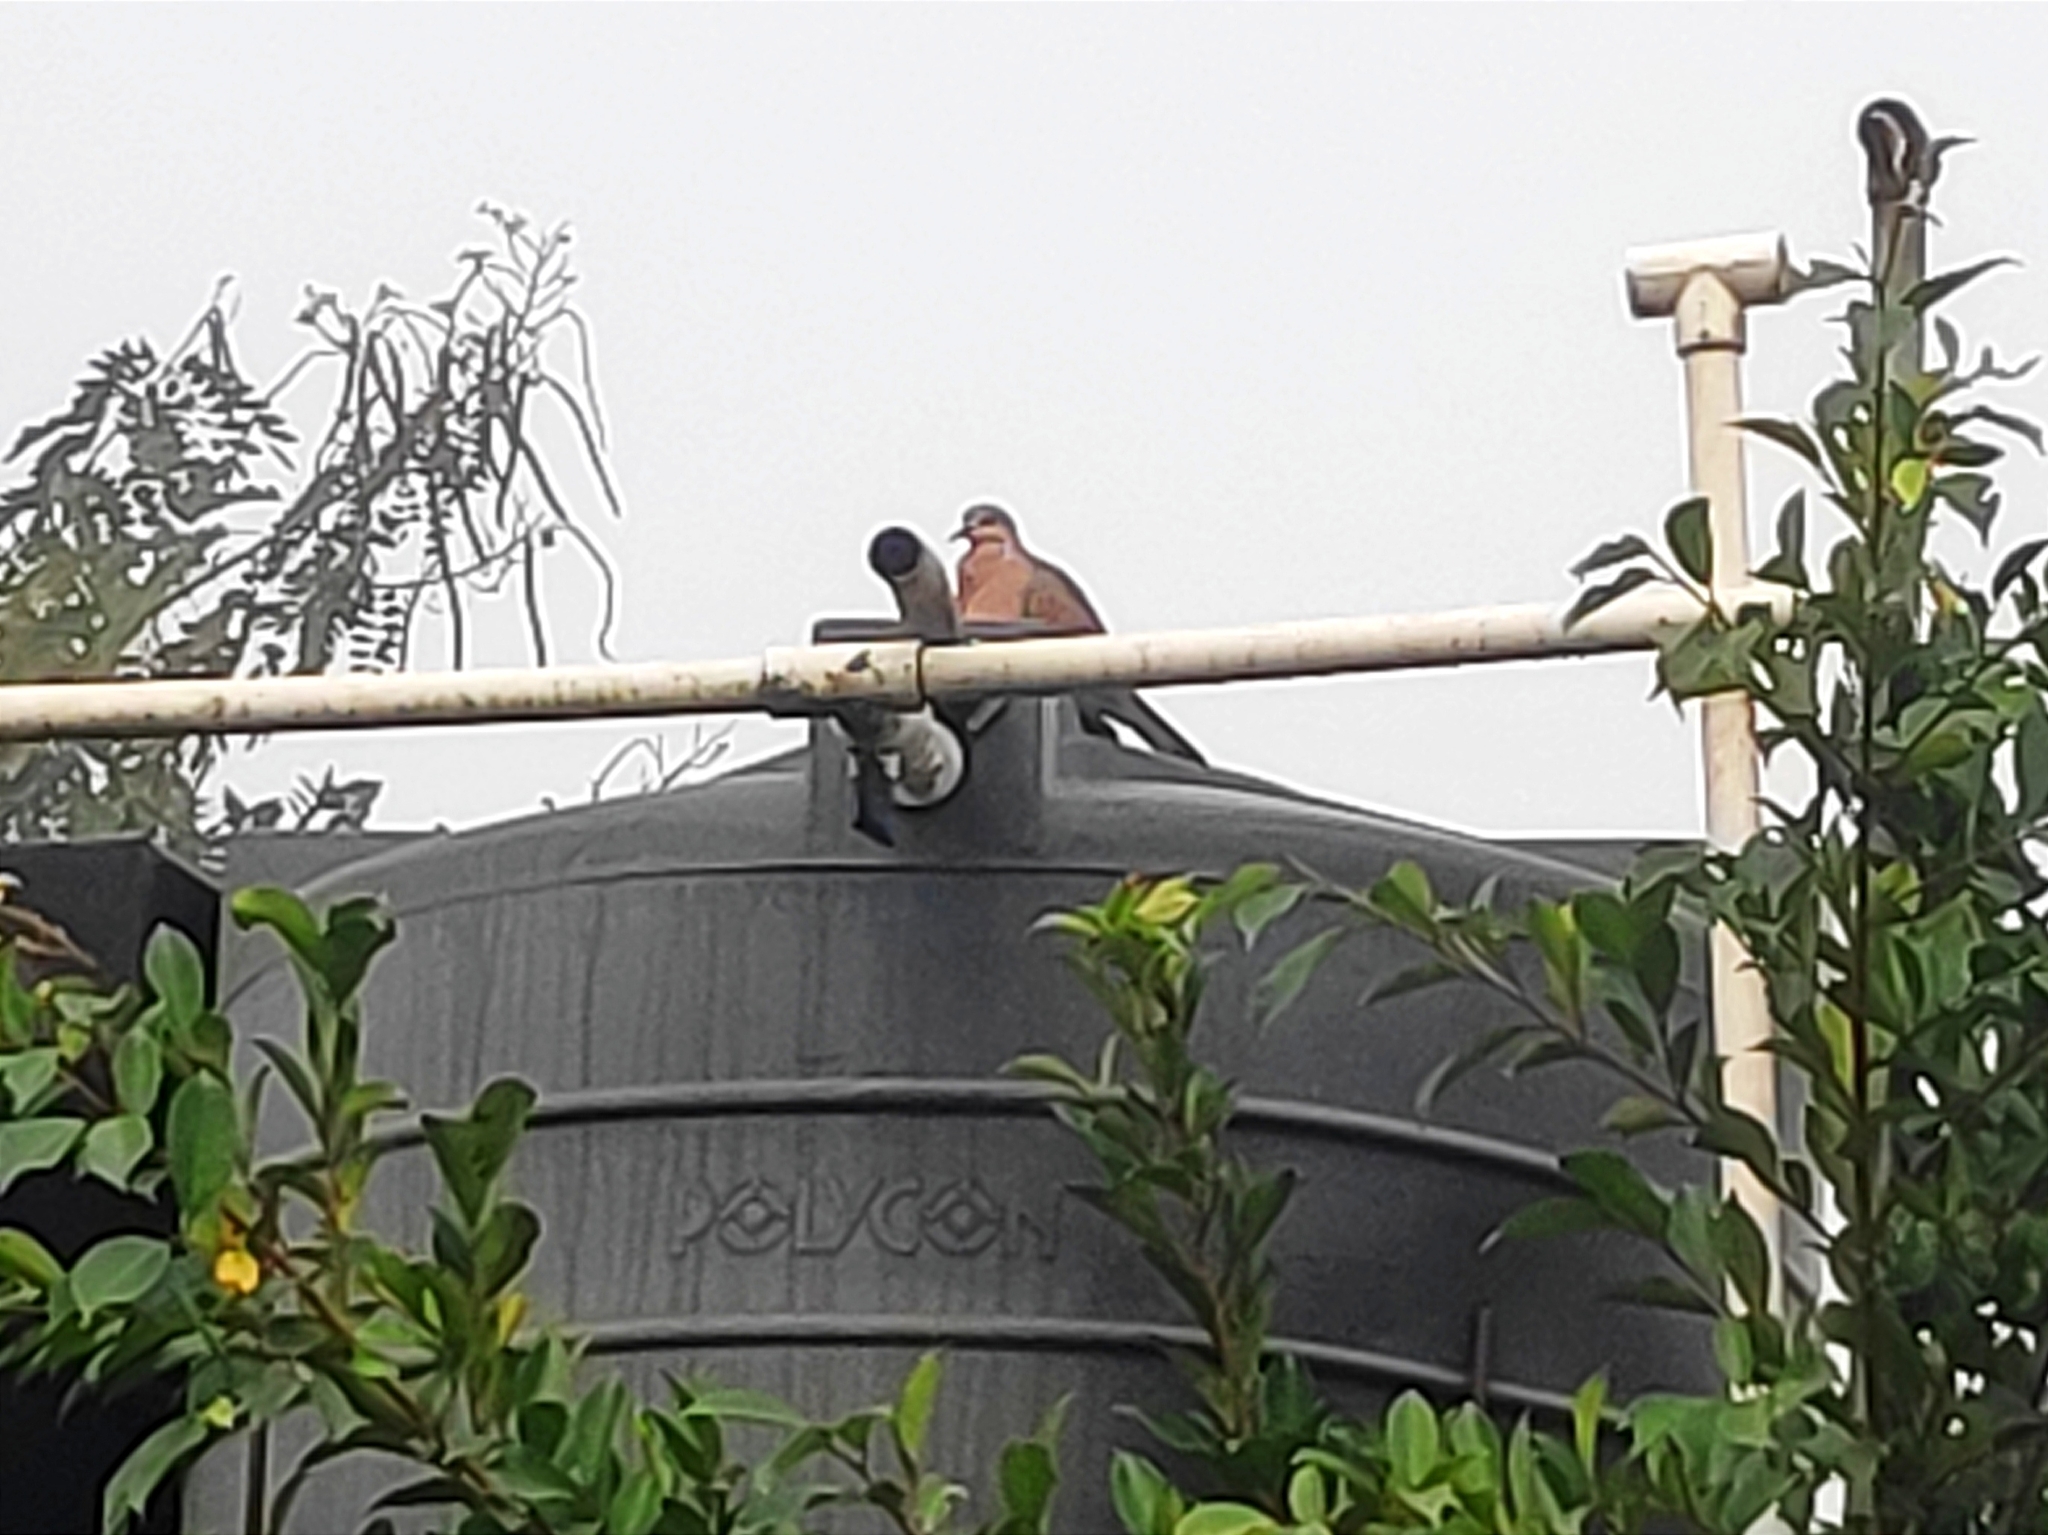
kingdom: Animalia
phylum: Chordata
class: Aves
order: Columbiformes
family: Columbidae
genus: Spilopelia
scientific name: Spilopelia chinensis
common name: Spotted dove
